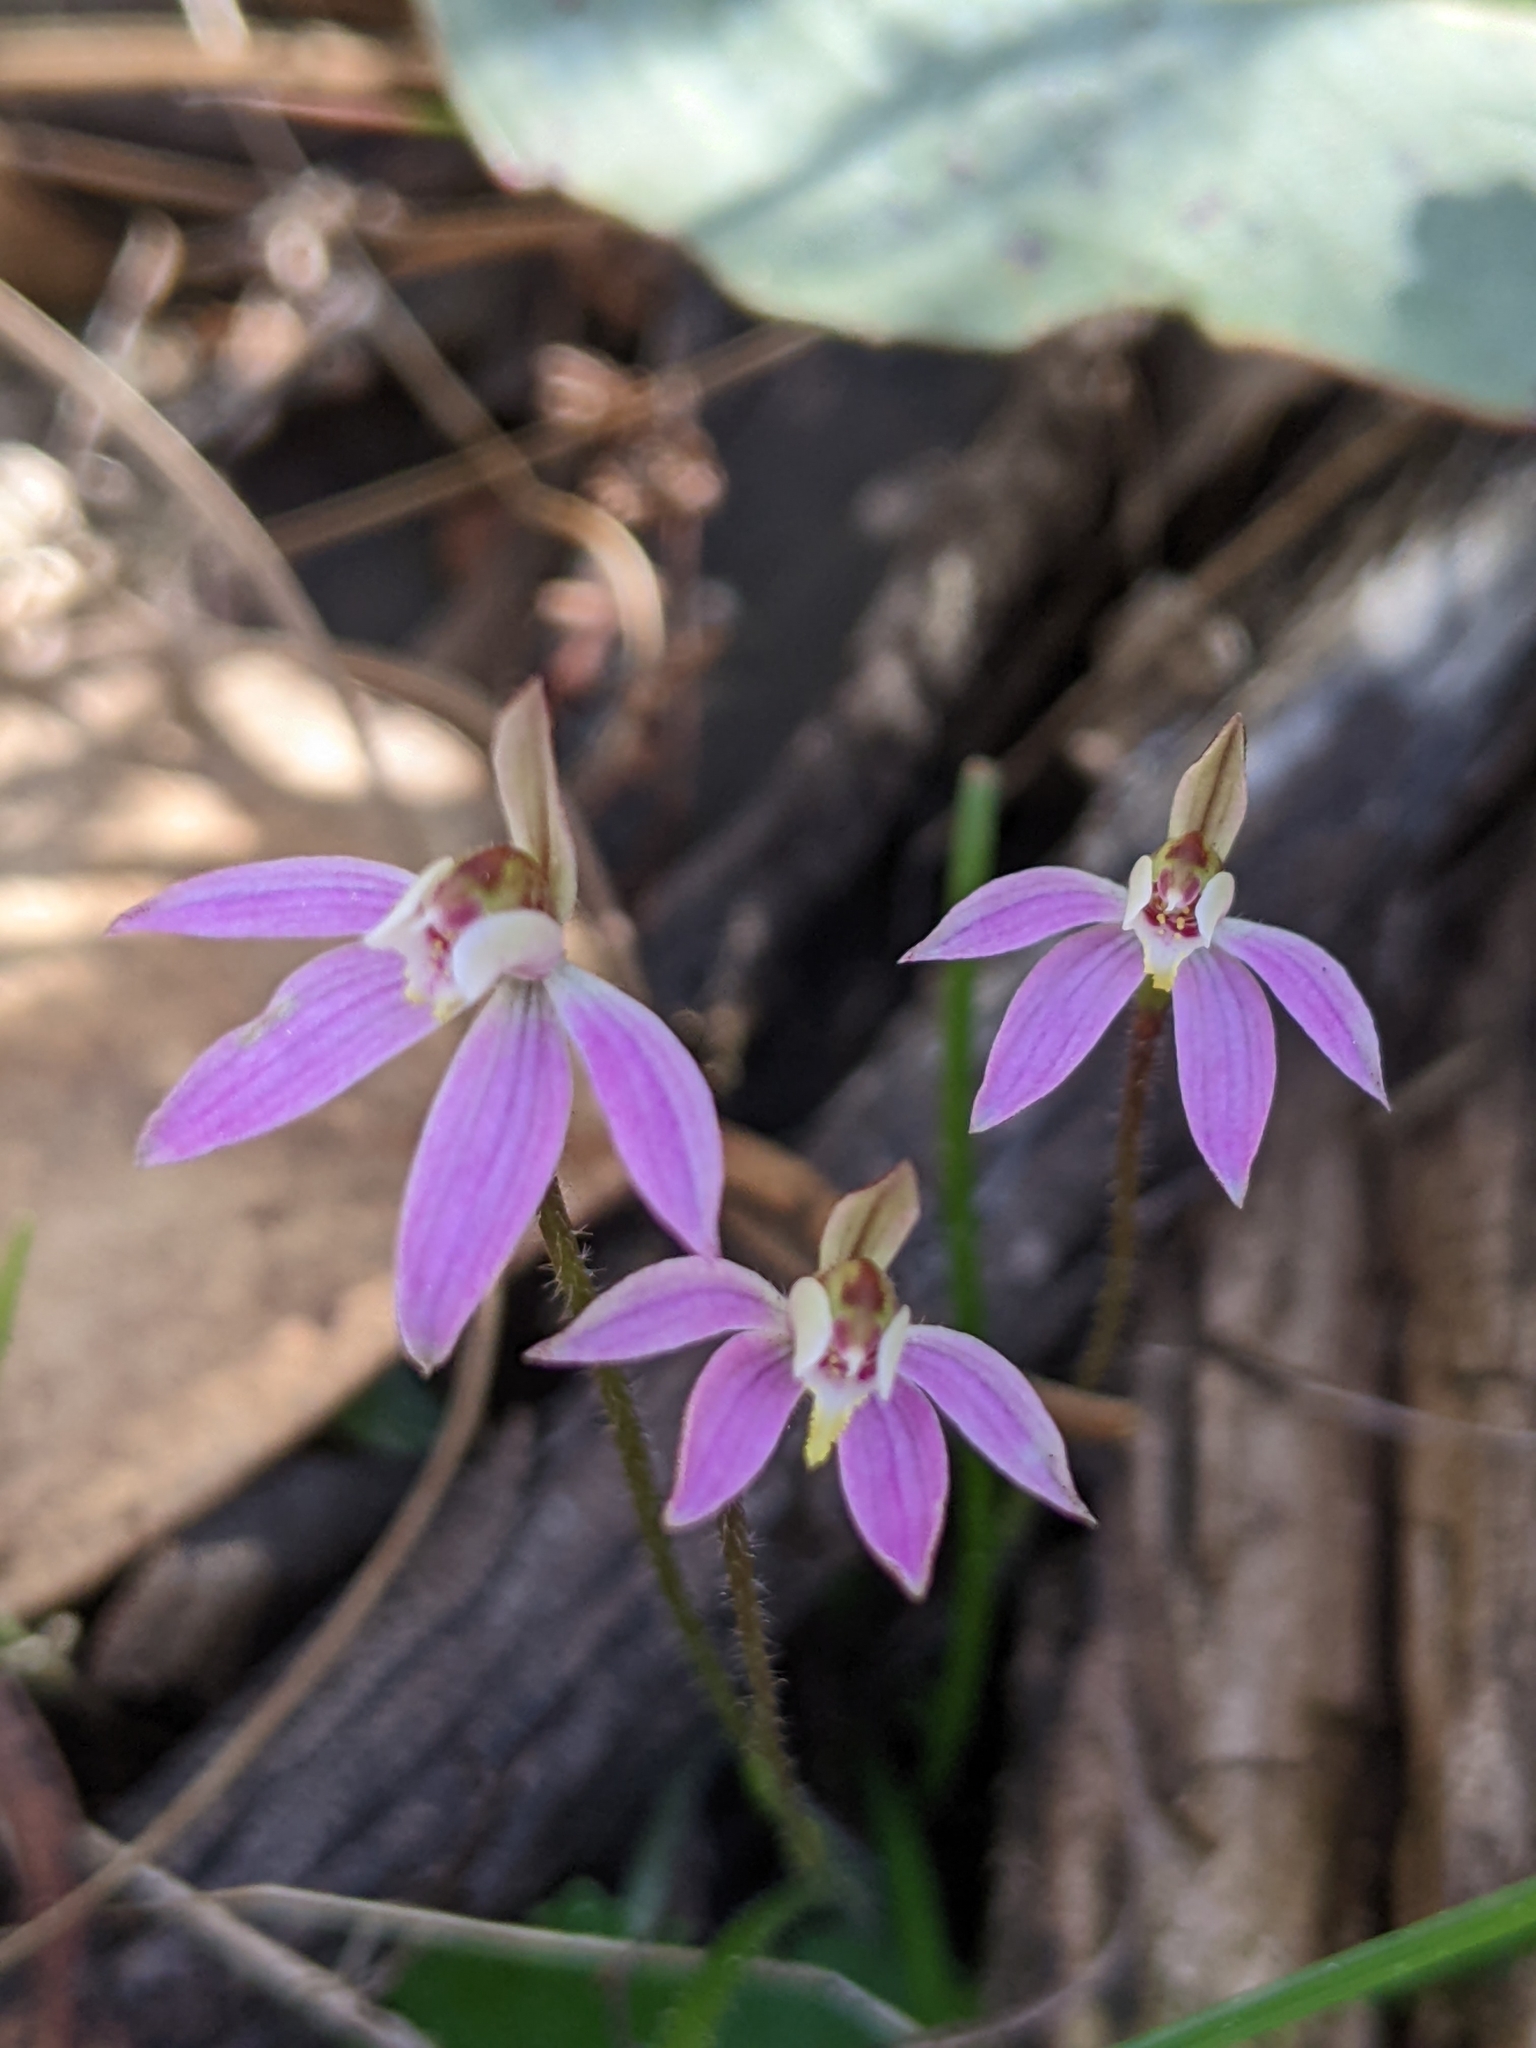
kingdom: Plantae
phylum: Tracheophyta
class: Liliopsida
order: Asparagales
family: Orchidaceae
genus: Caladenia
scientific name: Caladenia fuscata
